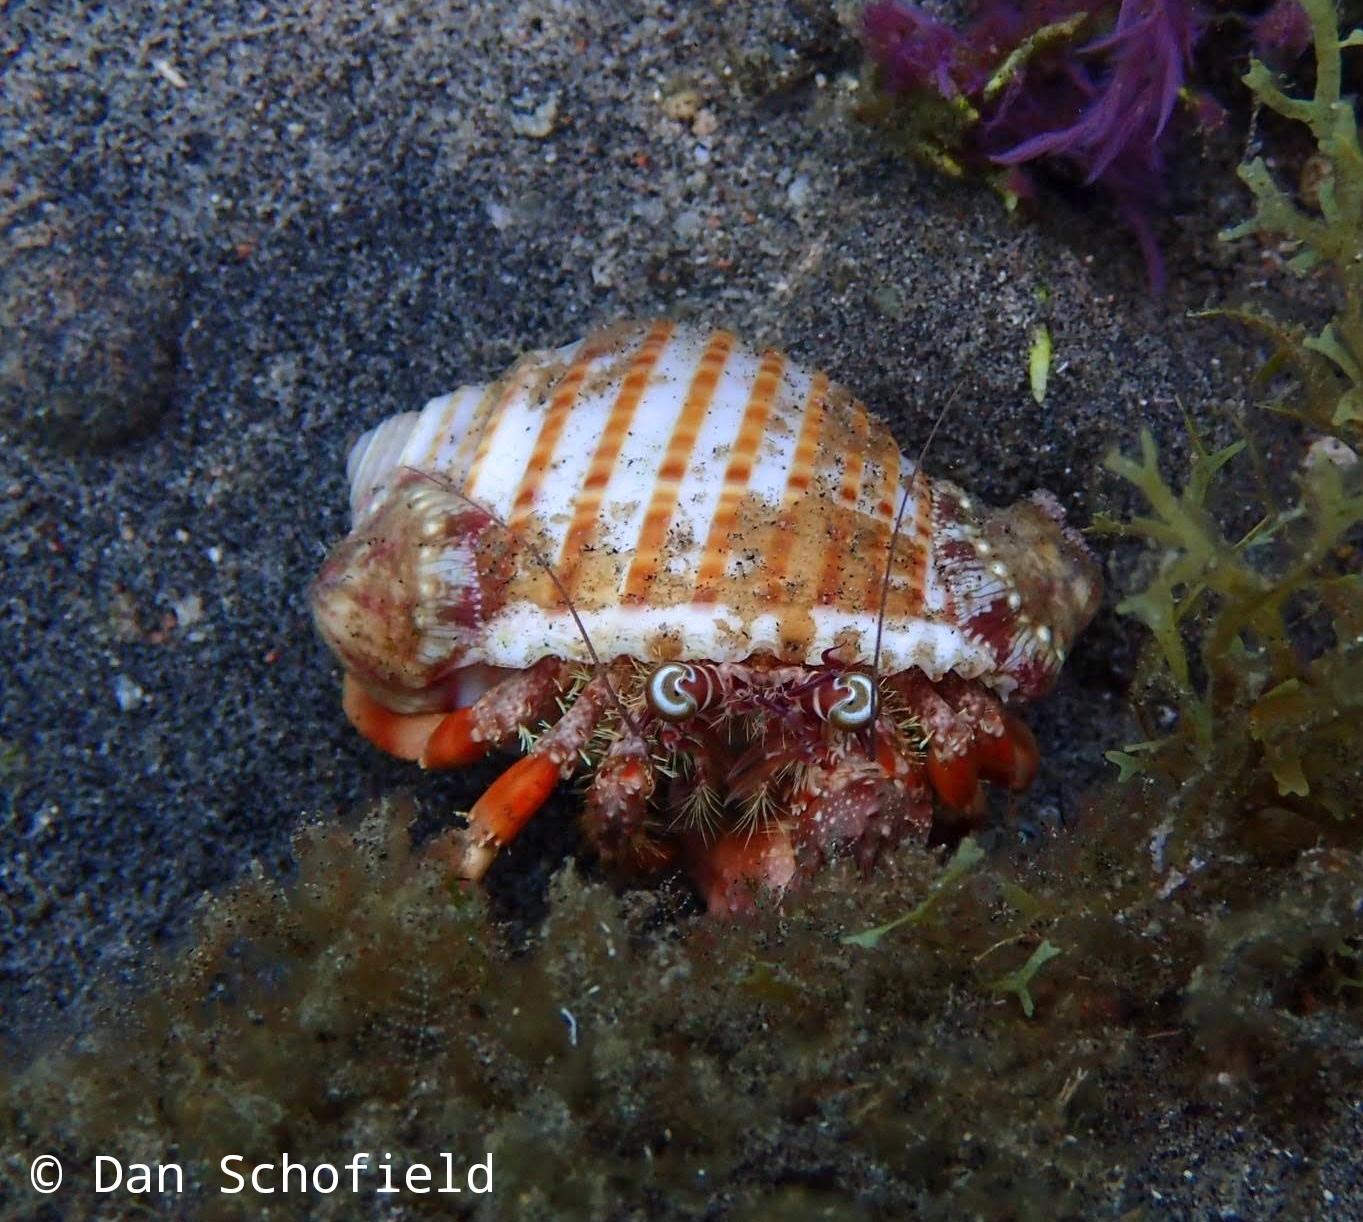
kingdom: Animalia
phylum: Arthropoda
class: Malacostraca
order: Decapoda
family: Diogenidae
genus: Dardanus
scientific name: Dardanus pedunculatus
